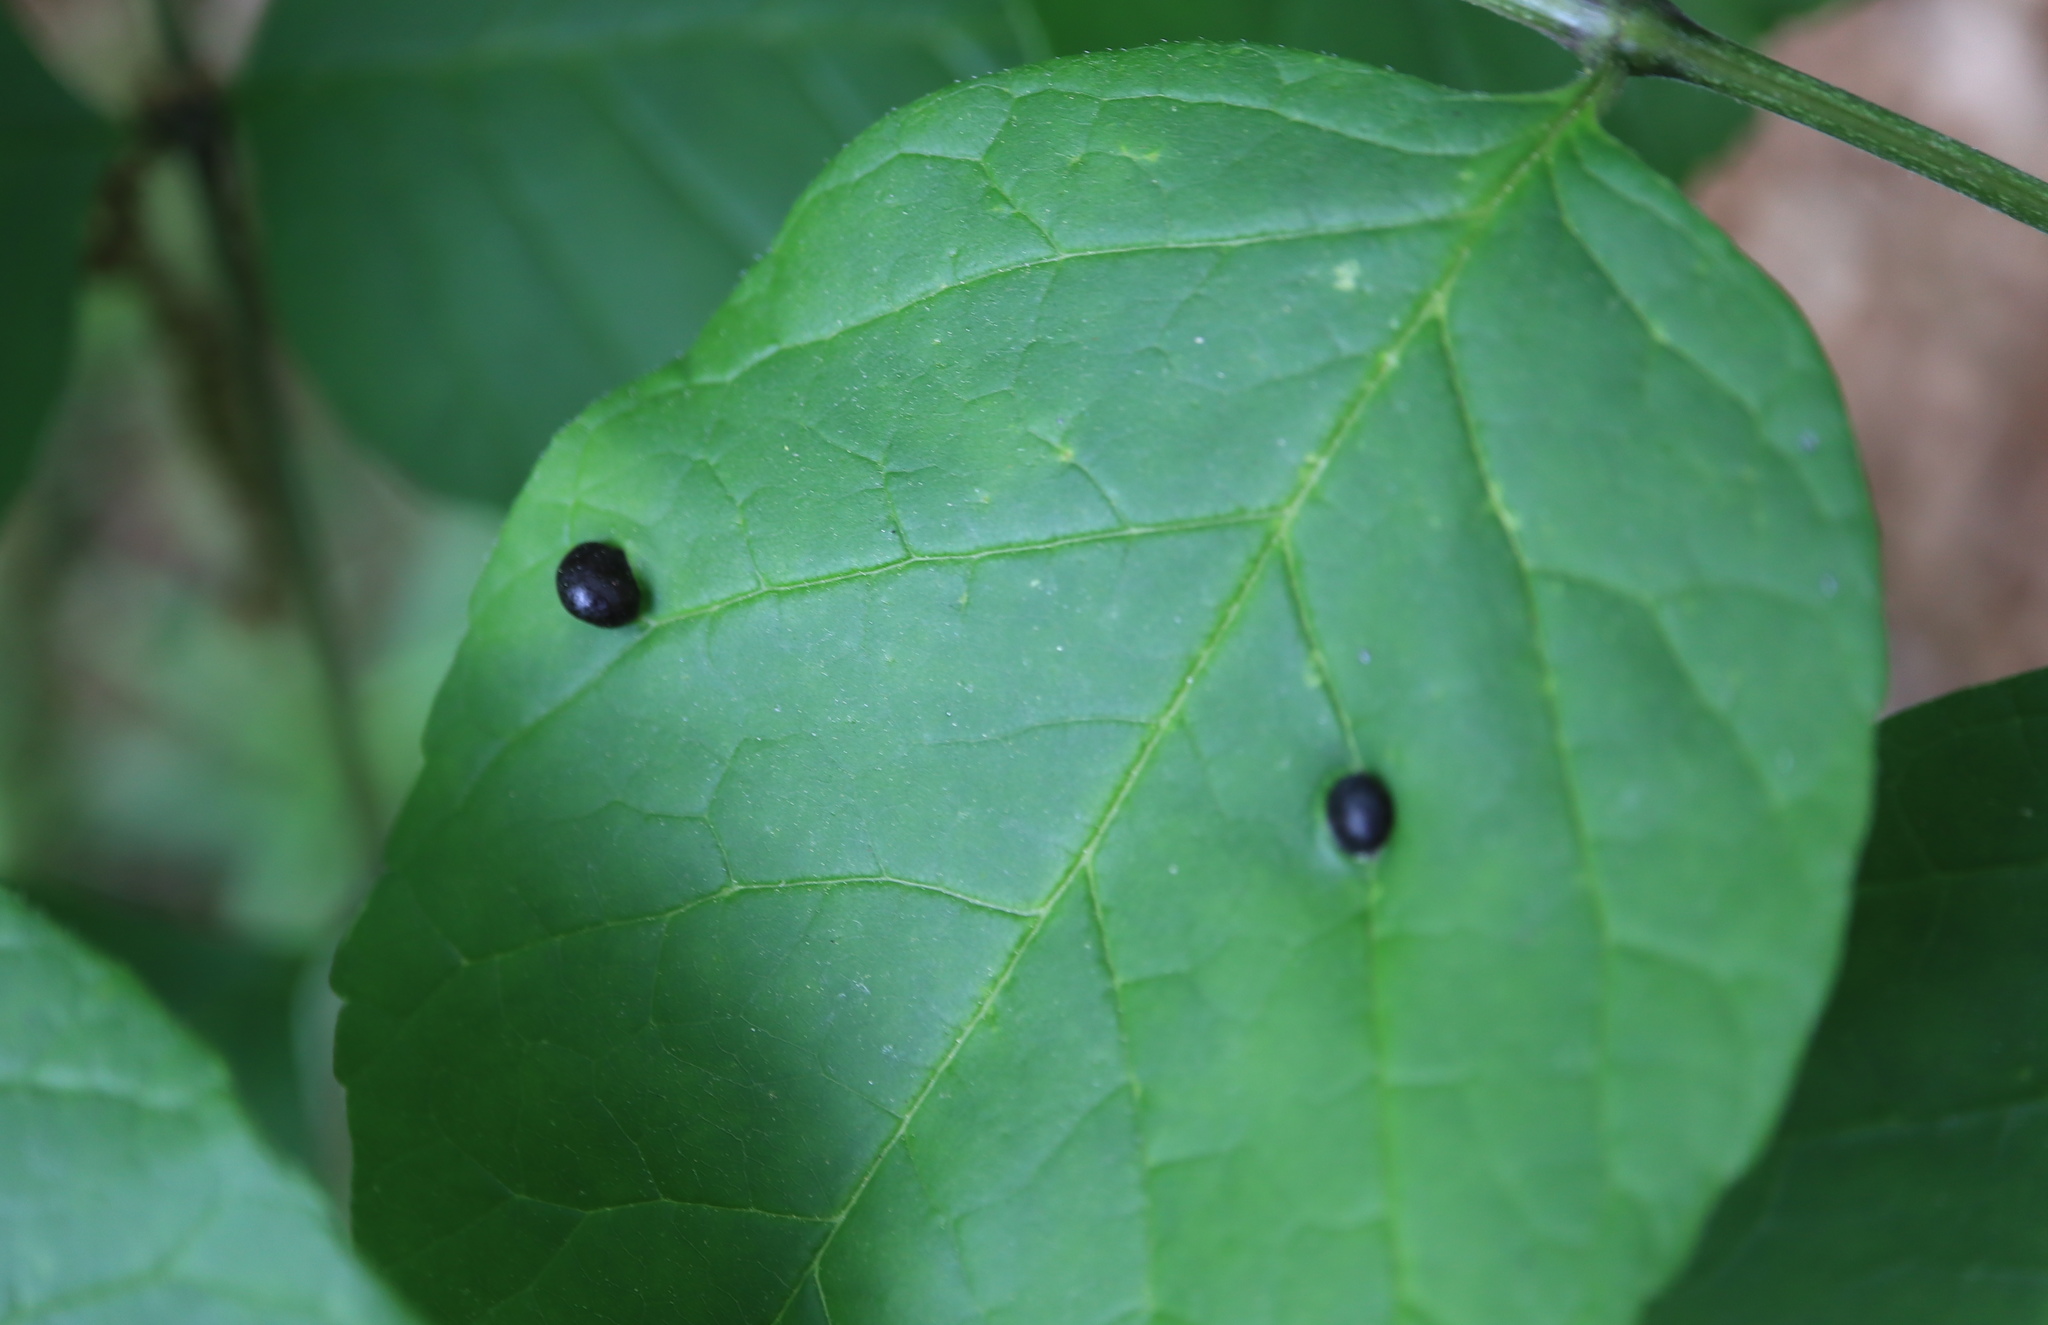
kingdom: Animalia
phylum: Arthropoda
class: Insecta
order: Diptera
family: Cecidomyiidae
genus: Dasineura
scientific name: Dasineura pellex
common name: Ash bullet gall midge
